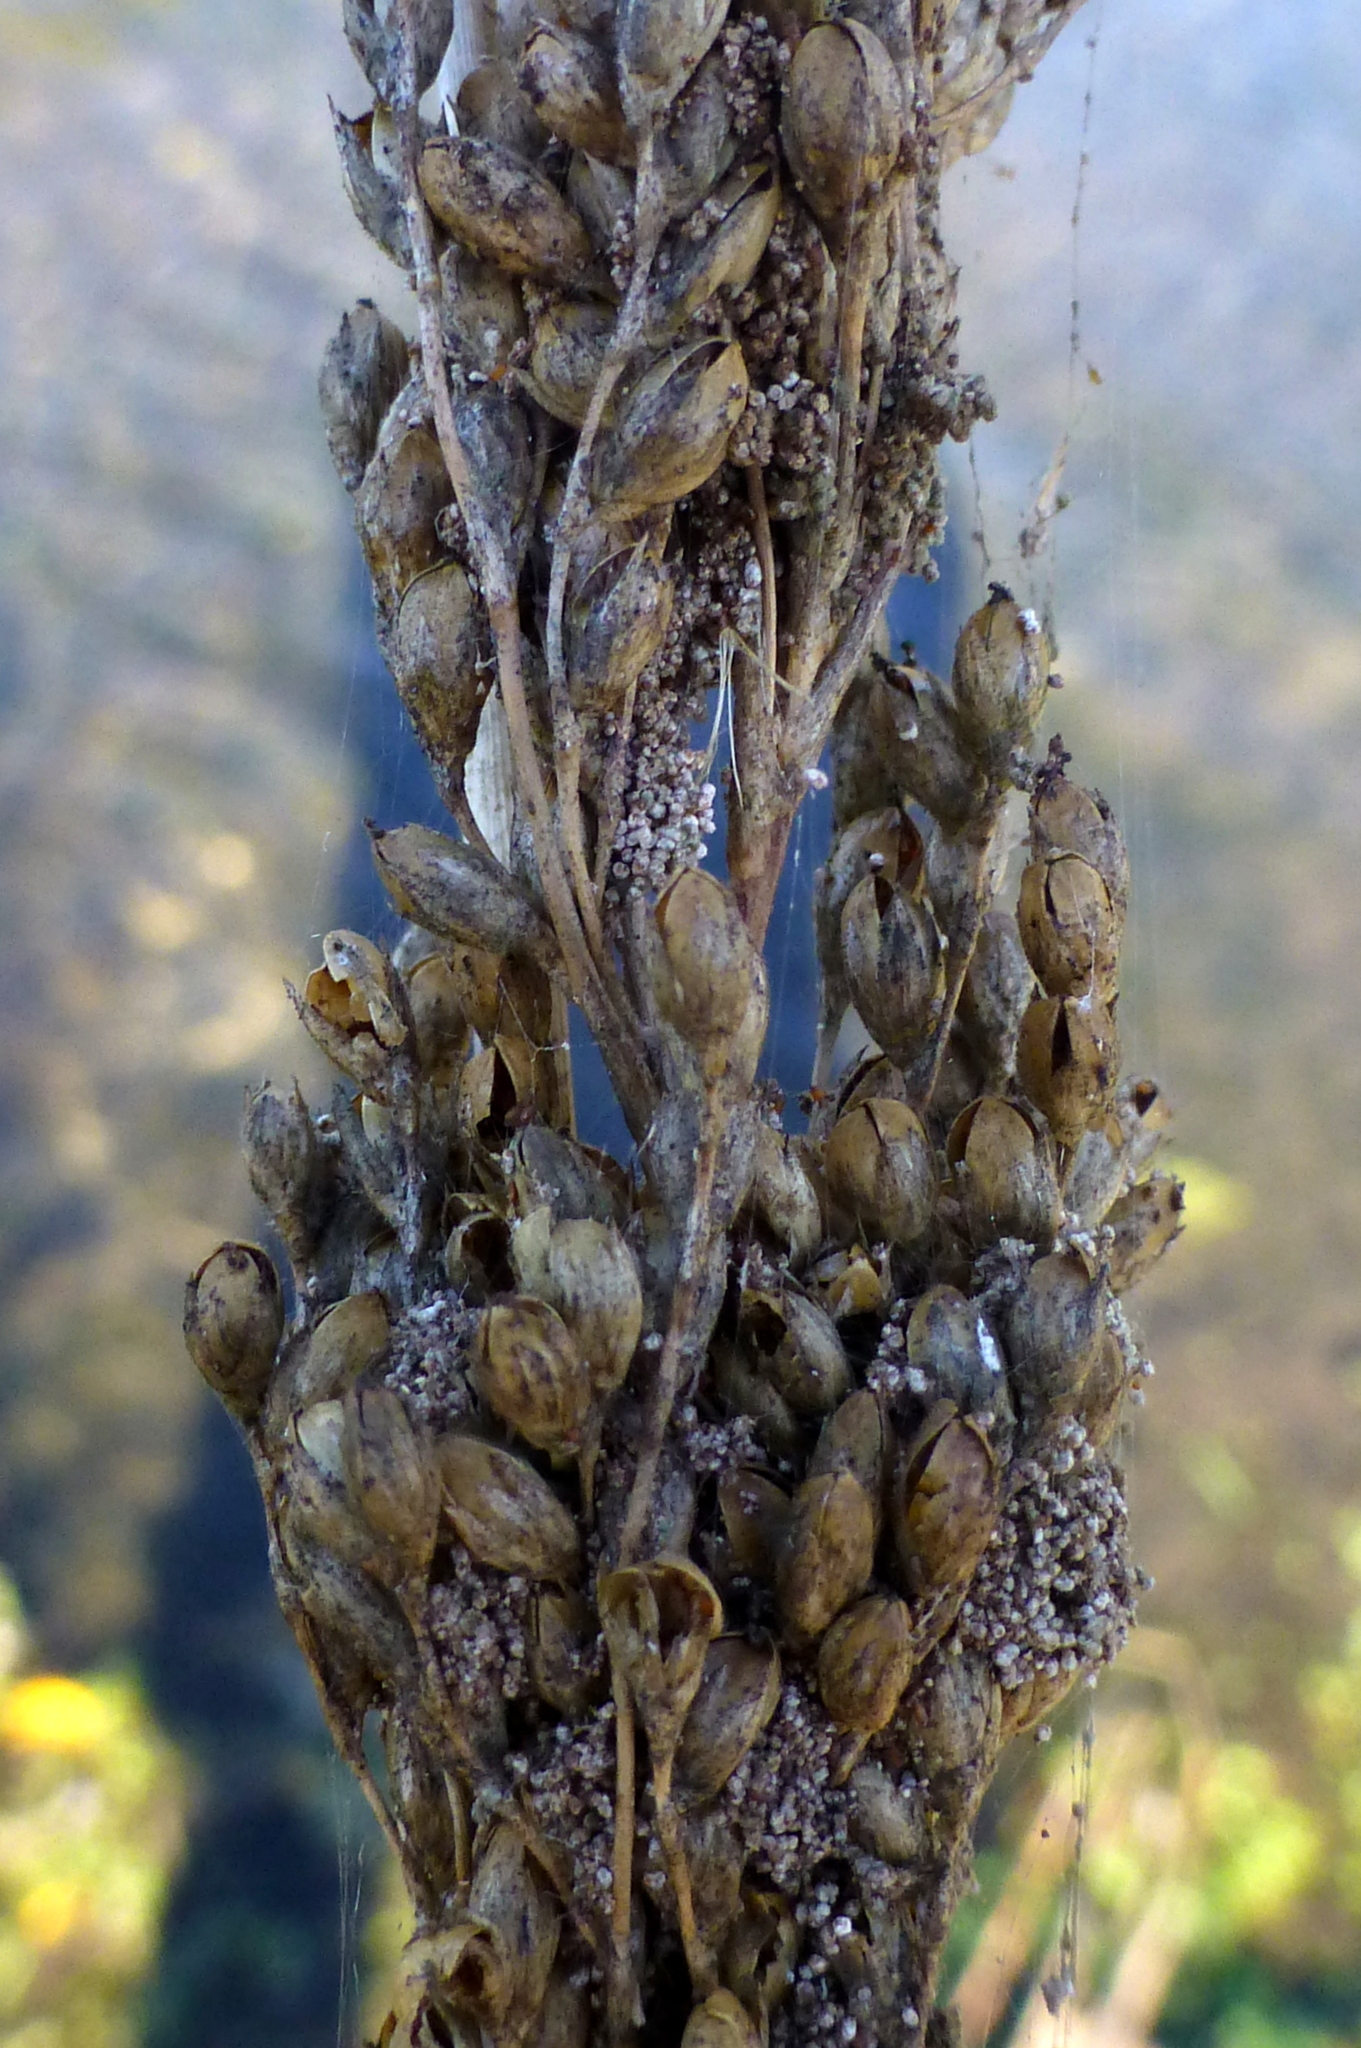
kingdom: Plantae
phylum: Tracheophyta
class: Liliopsida
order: Poales
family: Juncaceae
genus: Juncus
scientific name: Juncus pallidus
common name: Great soft-rush
